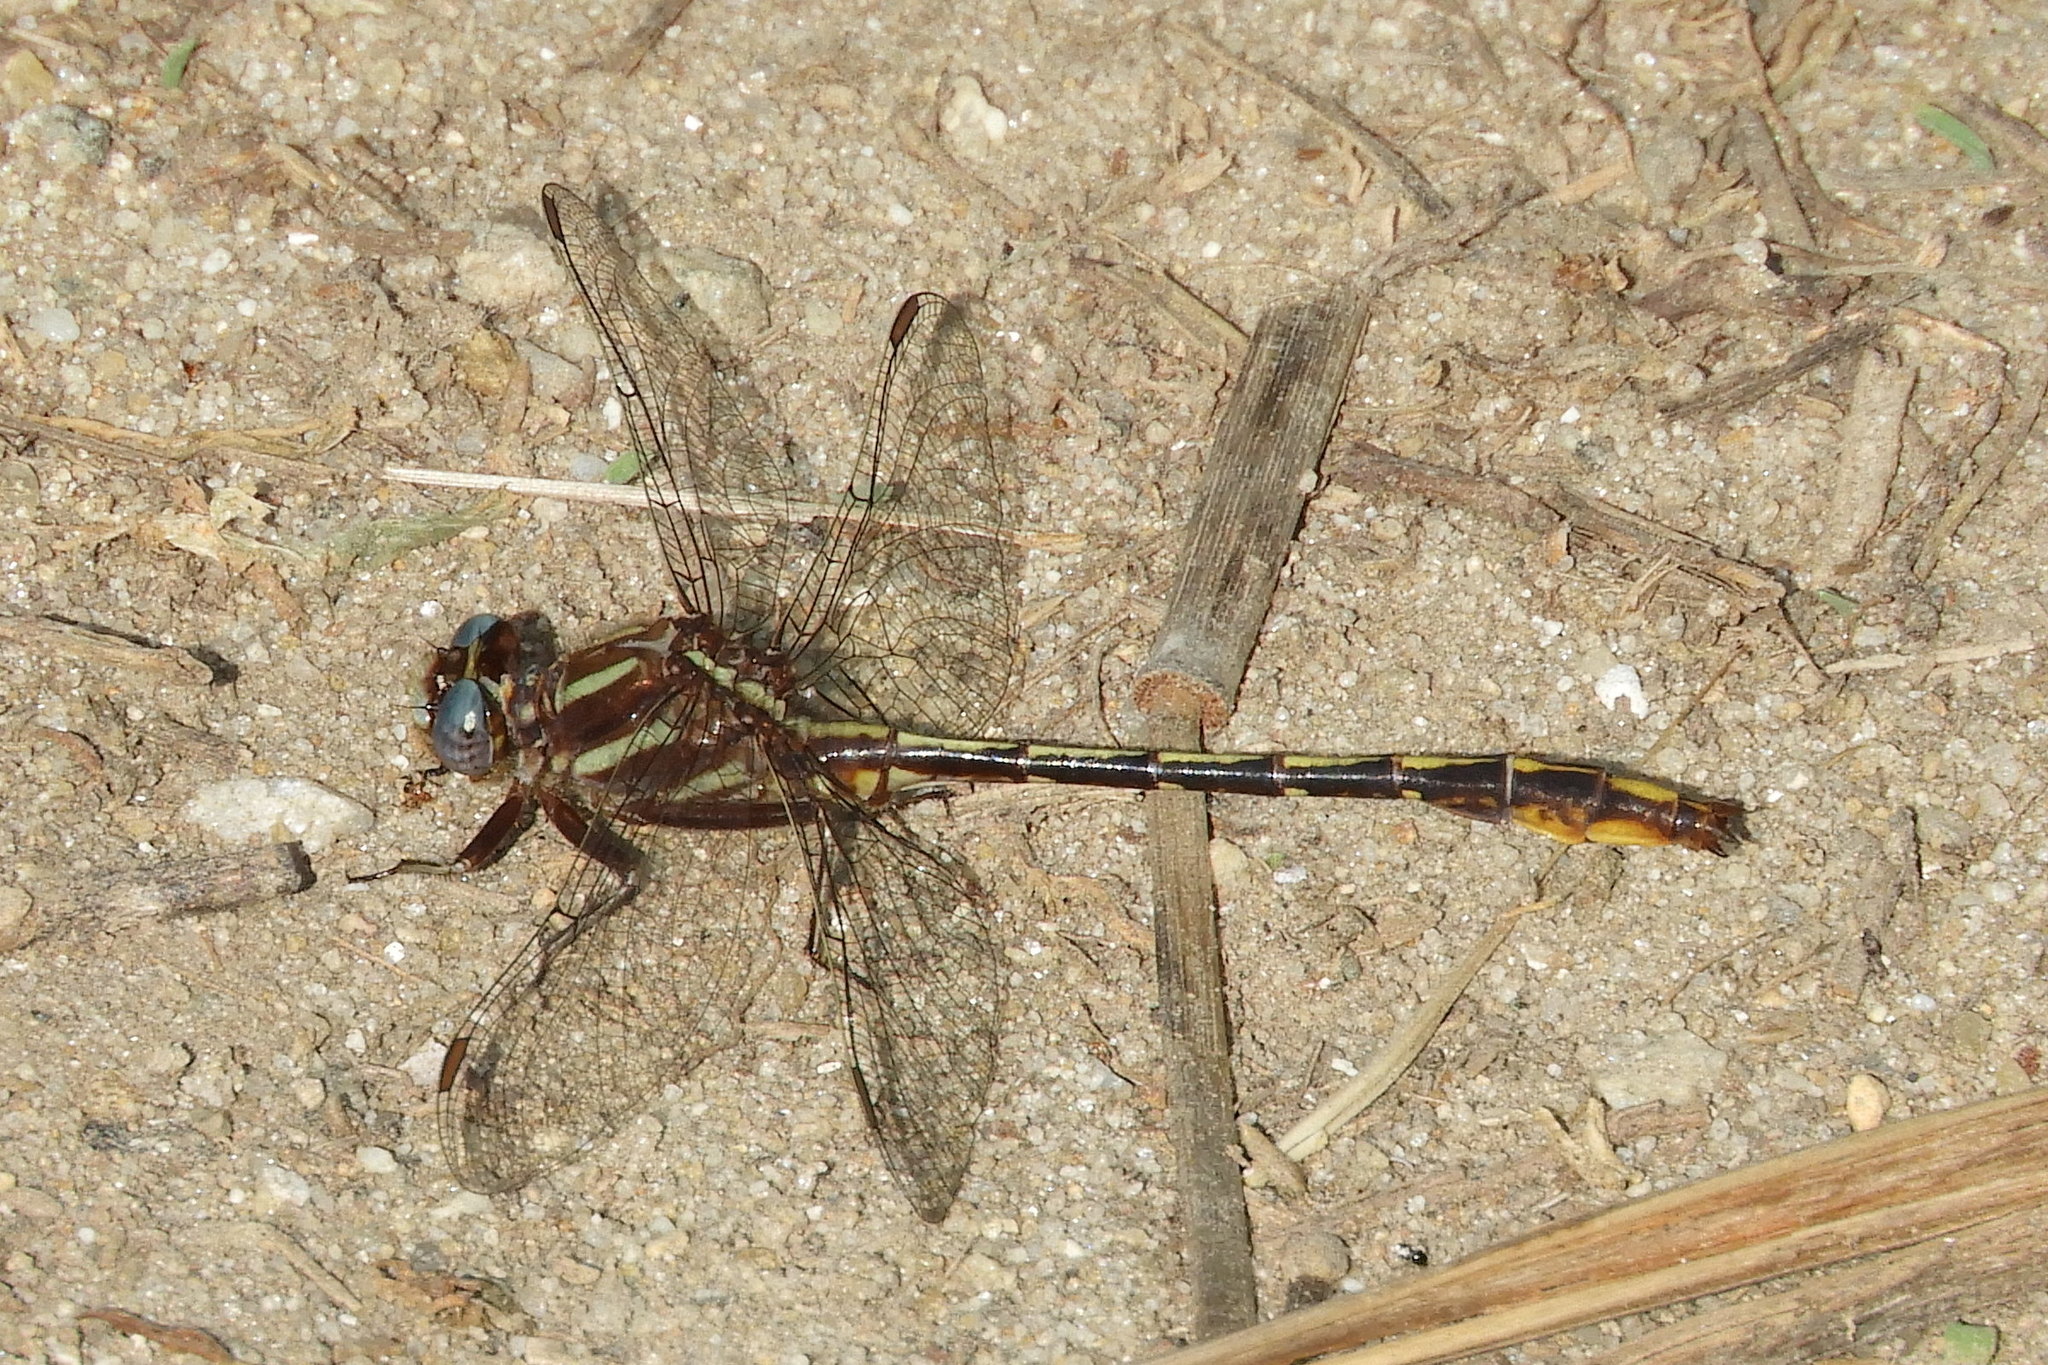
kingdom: Animalia
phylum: Arthropoda
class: Insecta
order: Odonata
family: Gomphidae
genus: Phanogomphus
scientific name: Phanogomphus exilis
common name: Lancet clubtail
